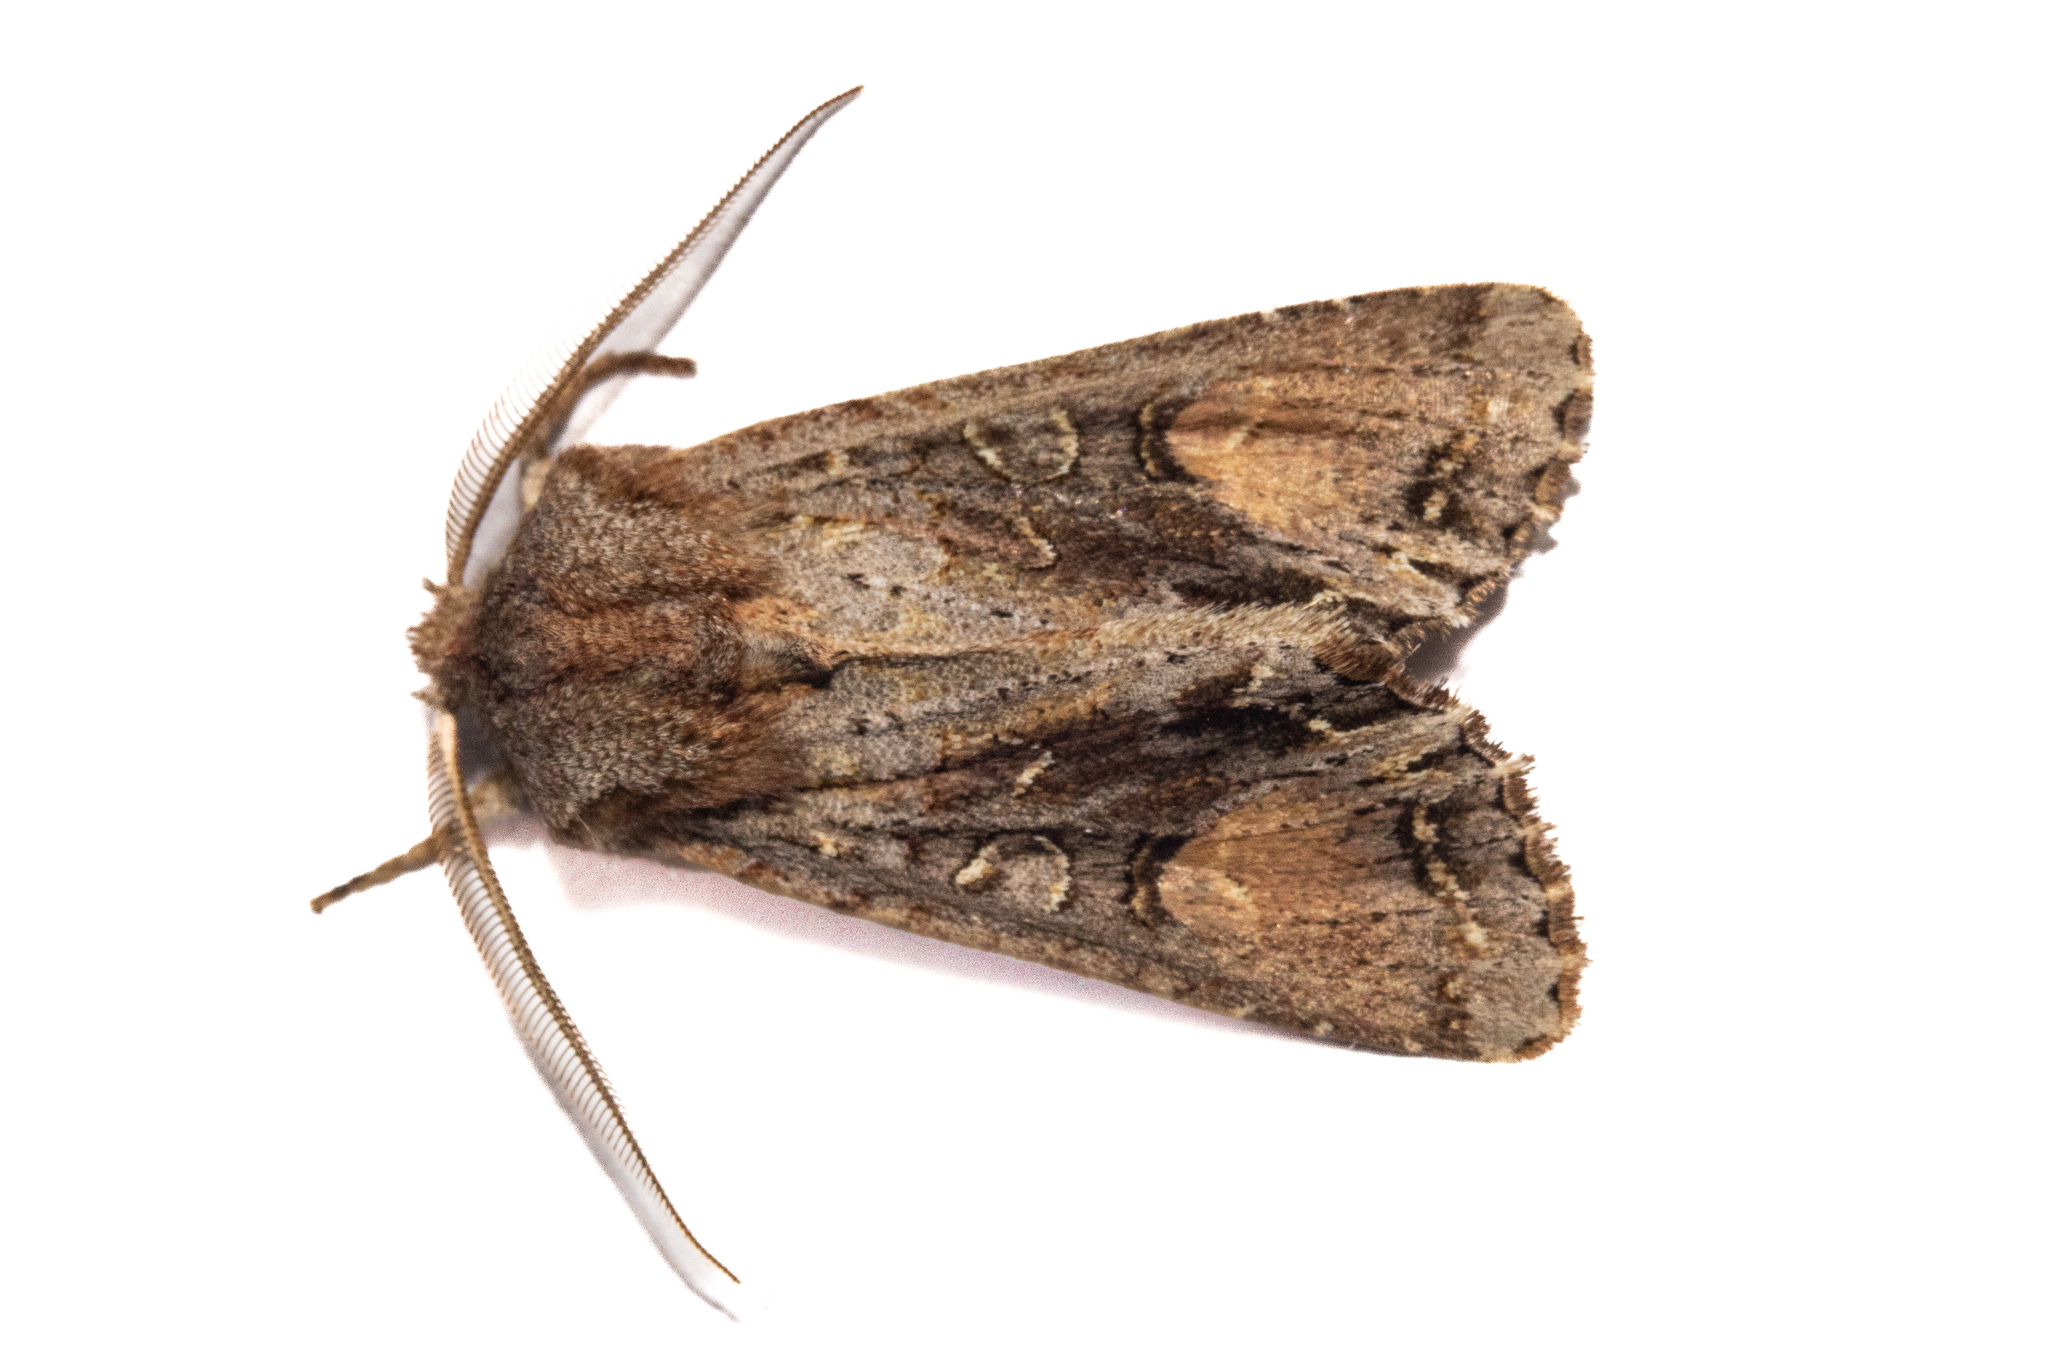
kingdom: Animalia
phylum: Arthropoda
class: Insecta
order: Lepidoptera
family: Noctuidae
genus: Ichneutica
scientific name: Ichneutica
